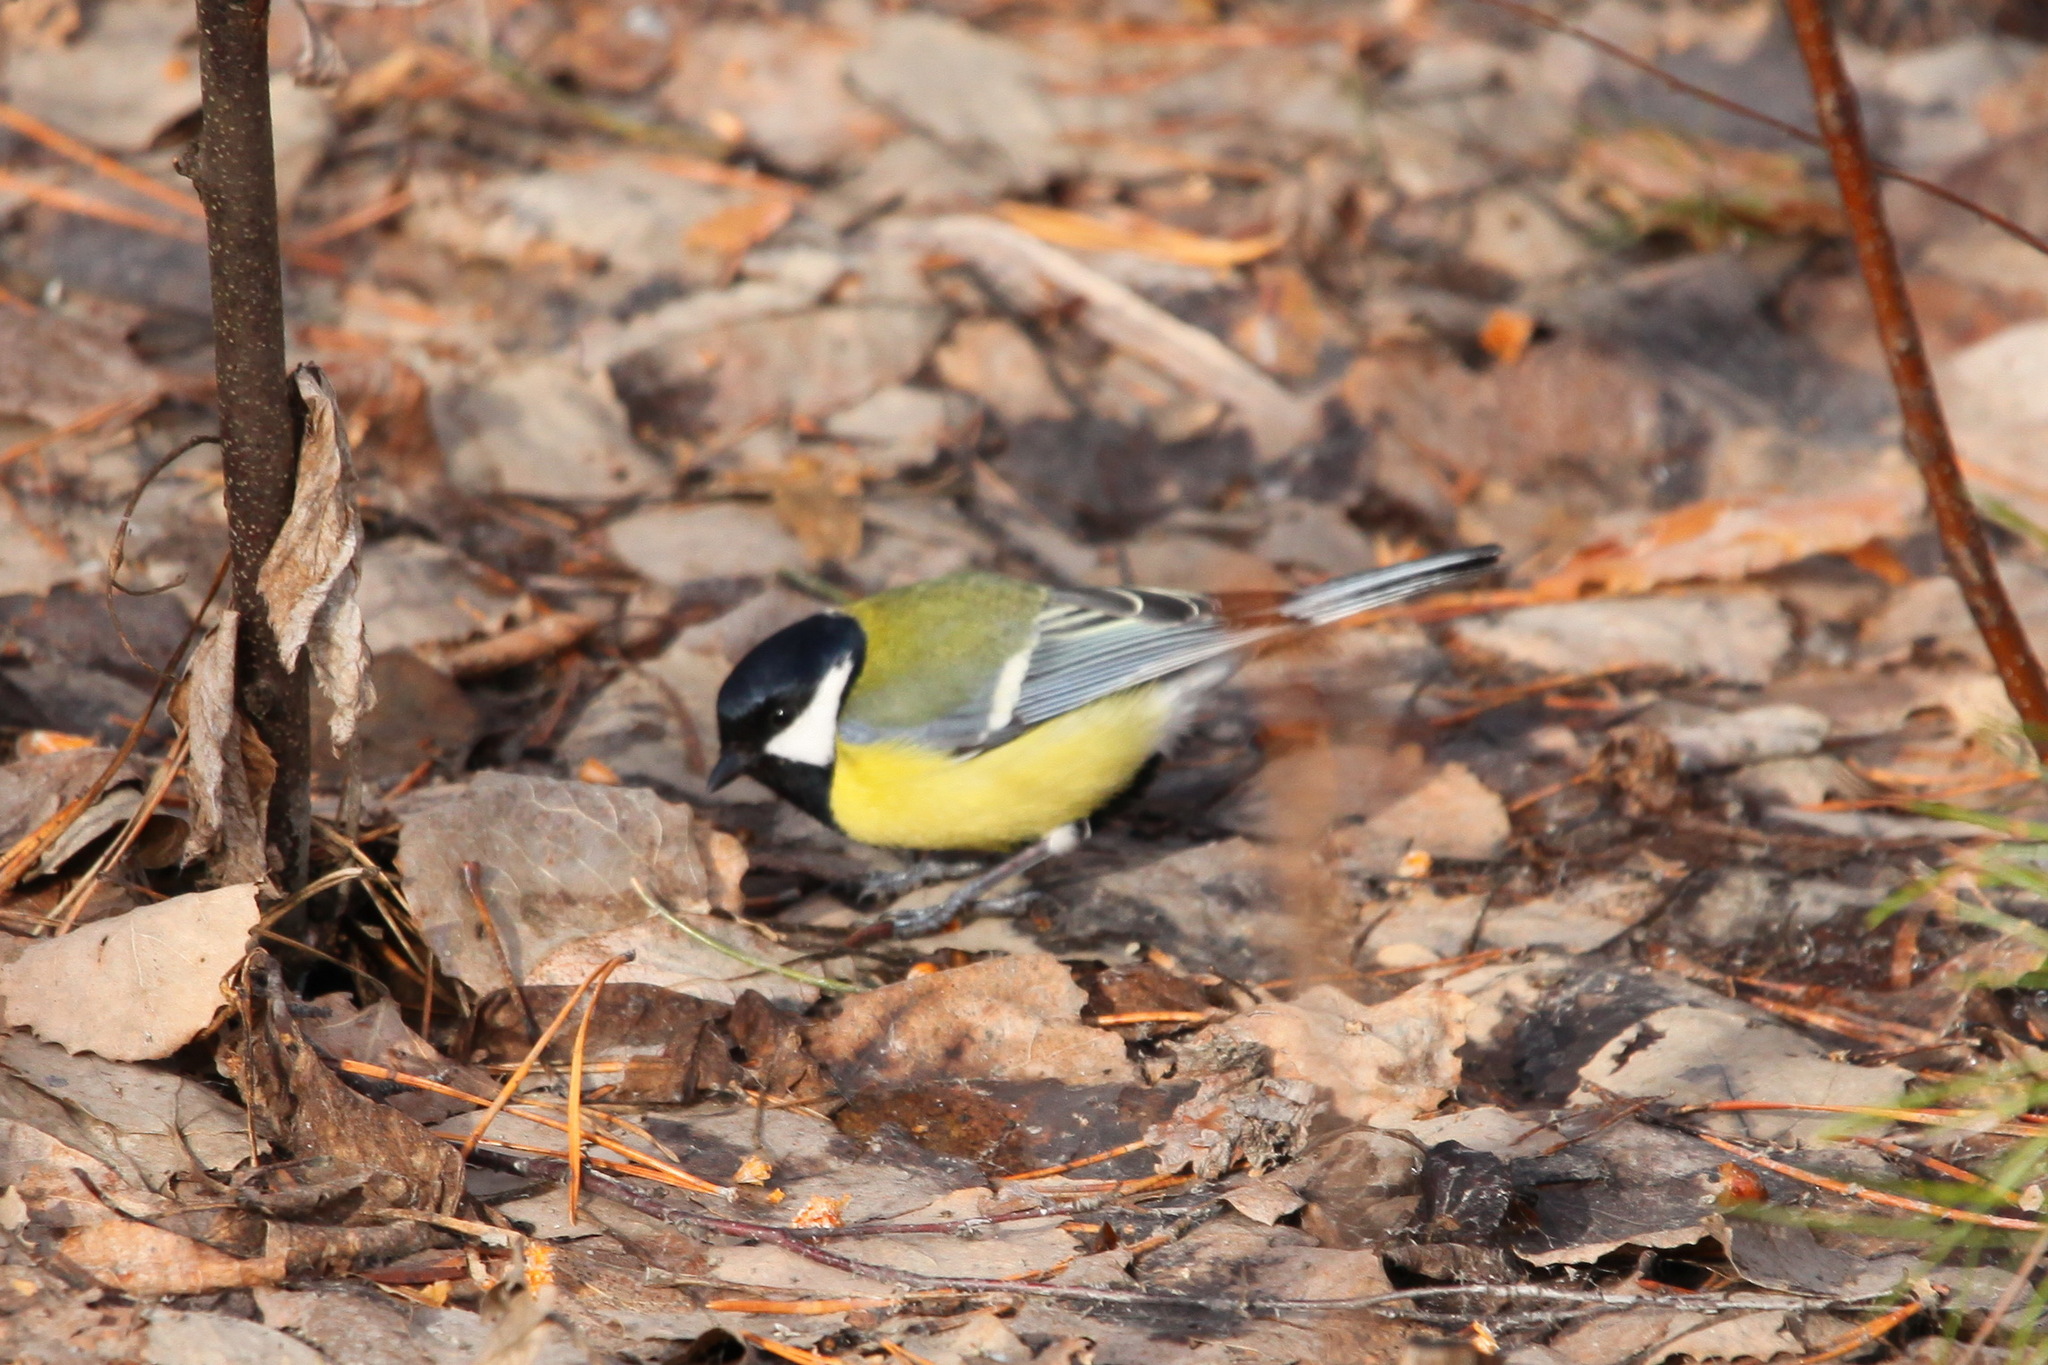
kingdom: Animalia
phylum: Chordata
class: Aves
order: Passeriformes
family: Paridae
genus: Parus
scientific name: Parus major
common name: Great tit
